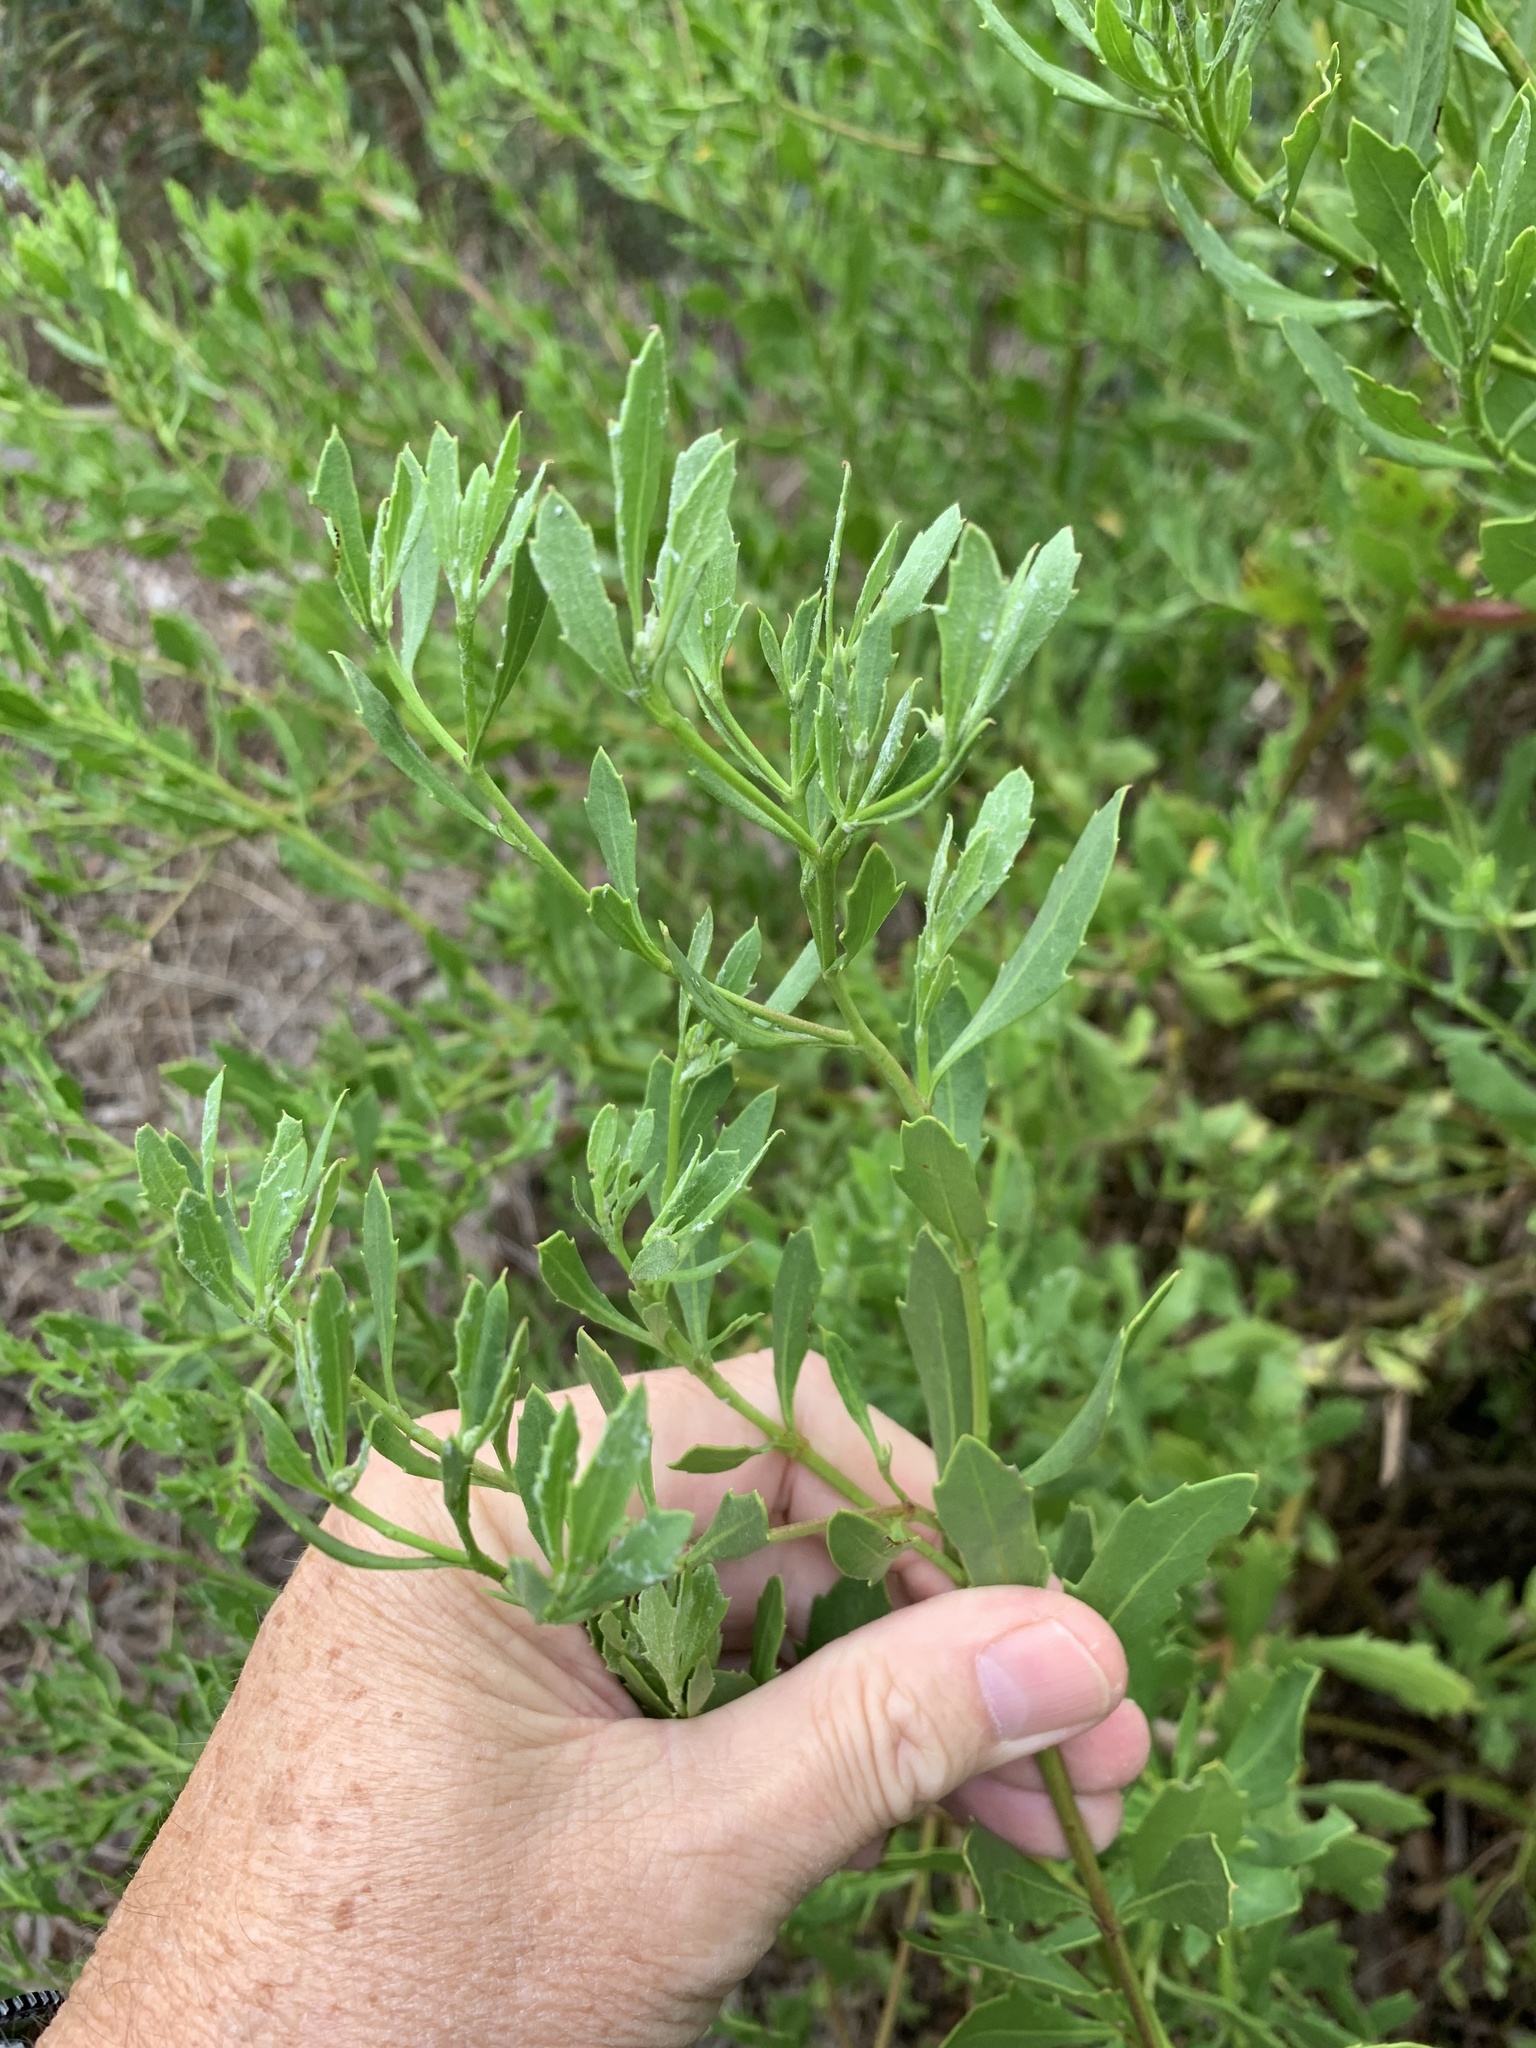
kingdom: Plantae
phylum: Tracheophyta
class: Magnoliopsida
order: Asterales
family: Asteraceae
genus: Osteospermum
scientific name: Osteospermum moniliferum
